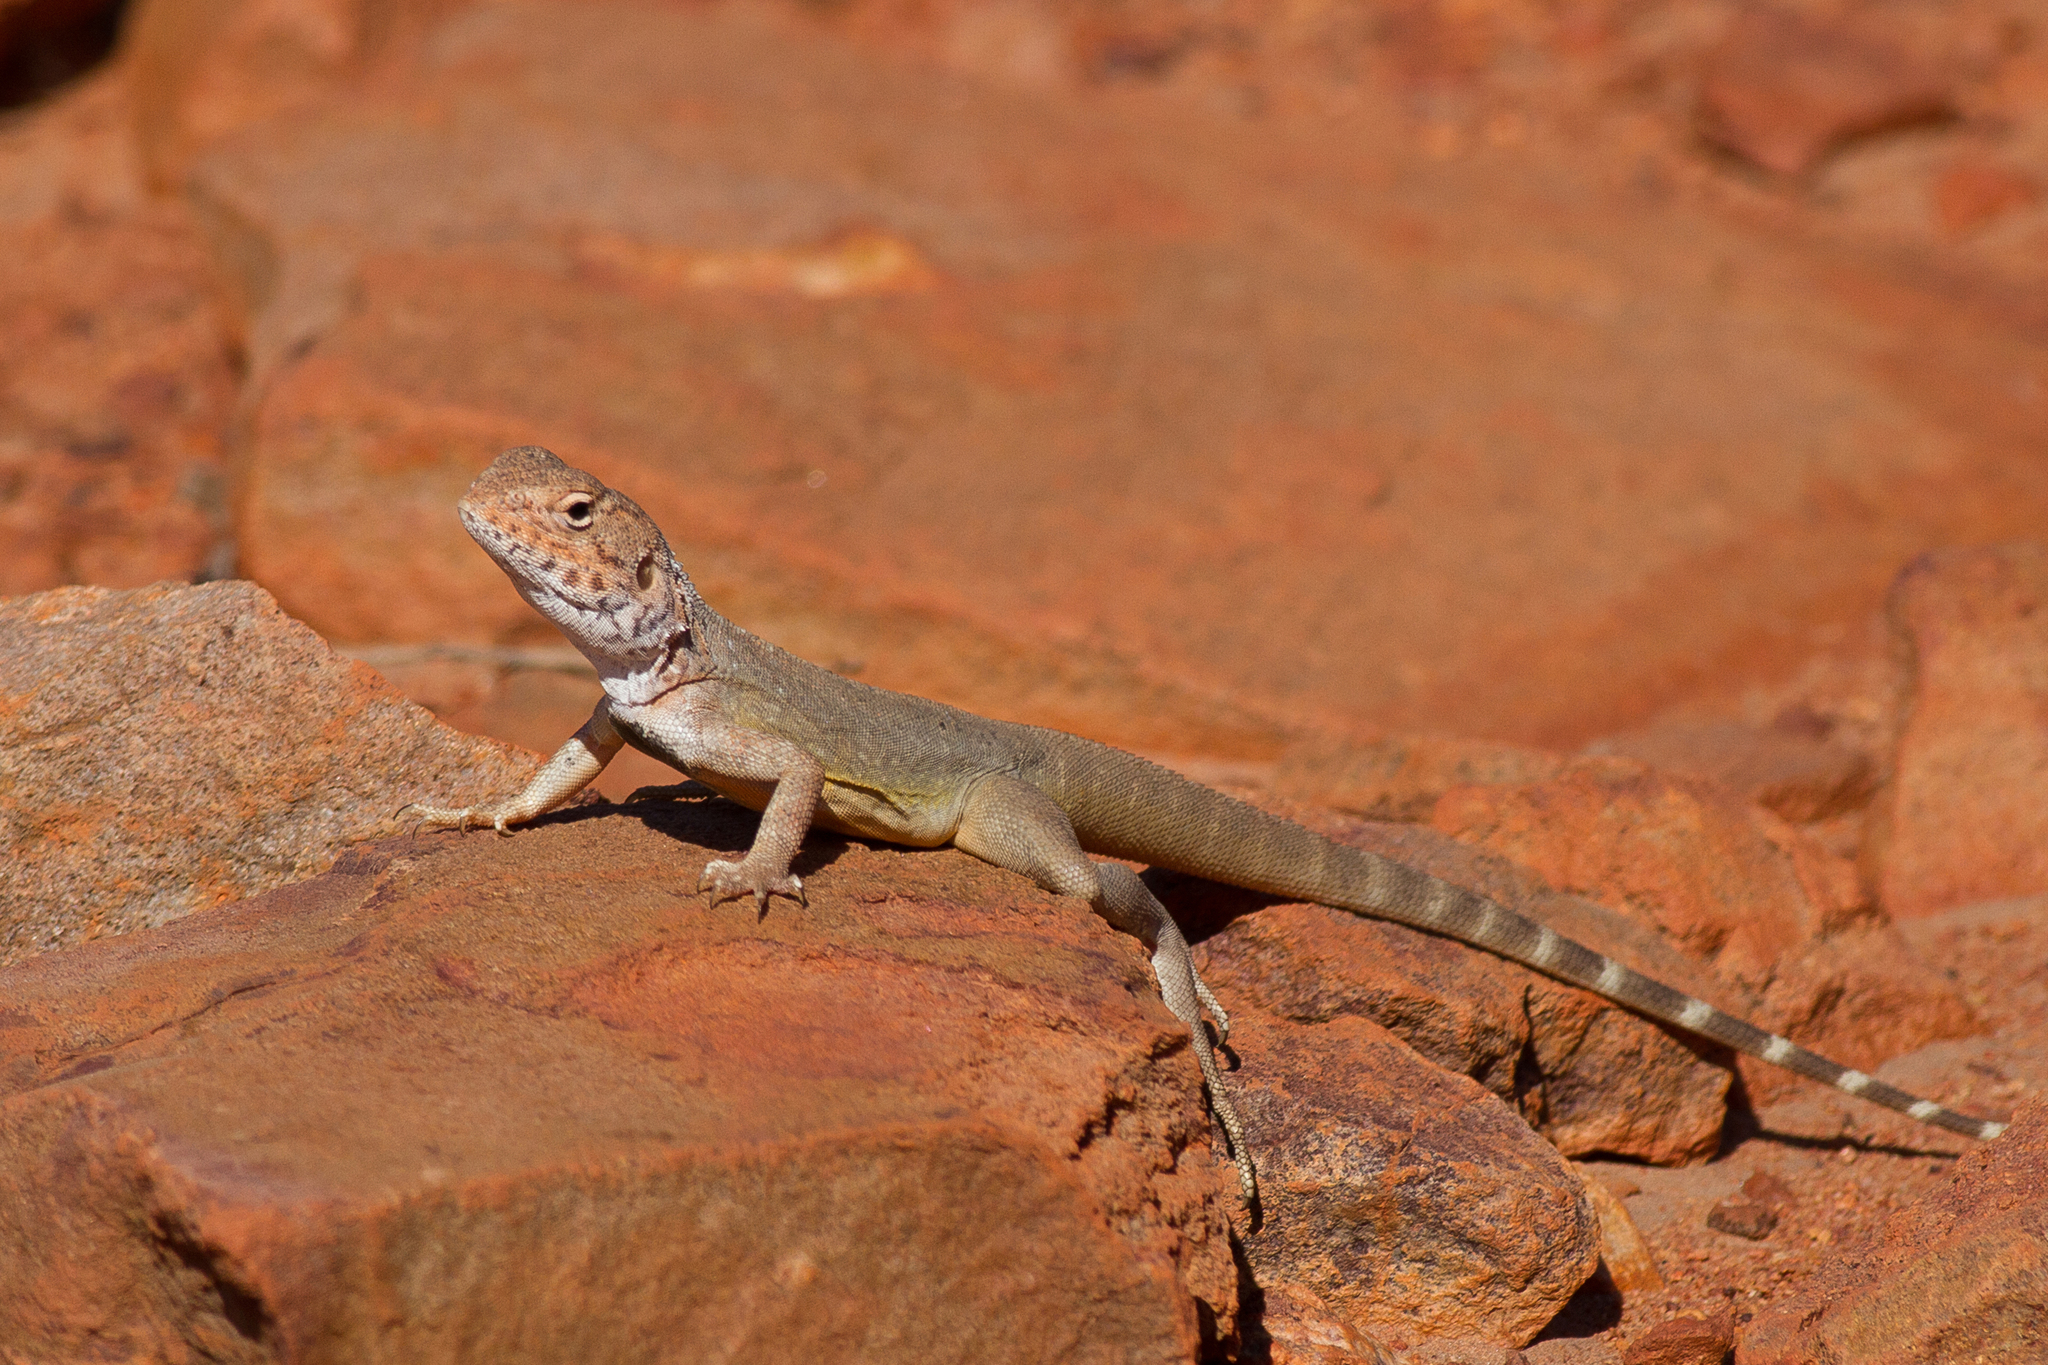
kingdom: Animalia
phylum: Chordata
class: Squamata
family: Agamidae
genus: Ctenophorus
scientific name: Ctenophorus slateri
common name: Slater’s dragon
